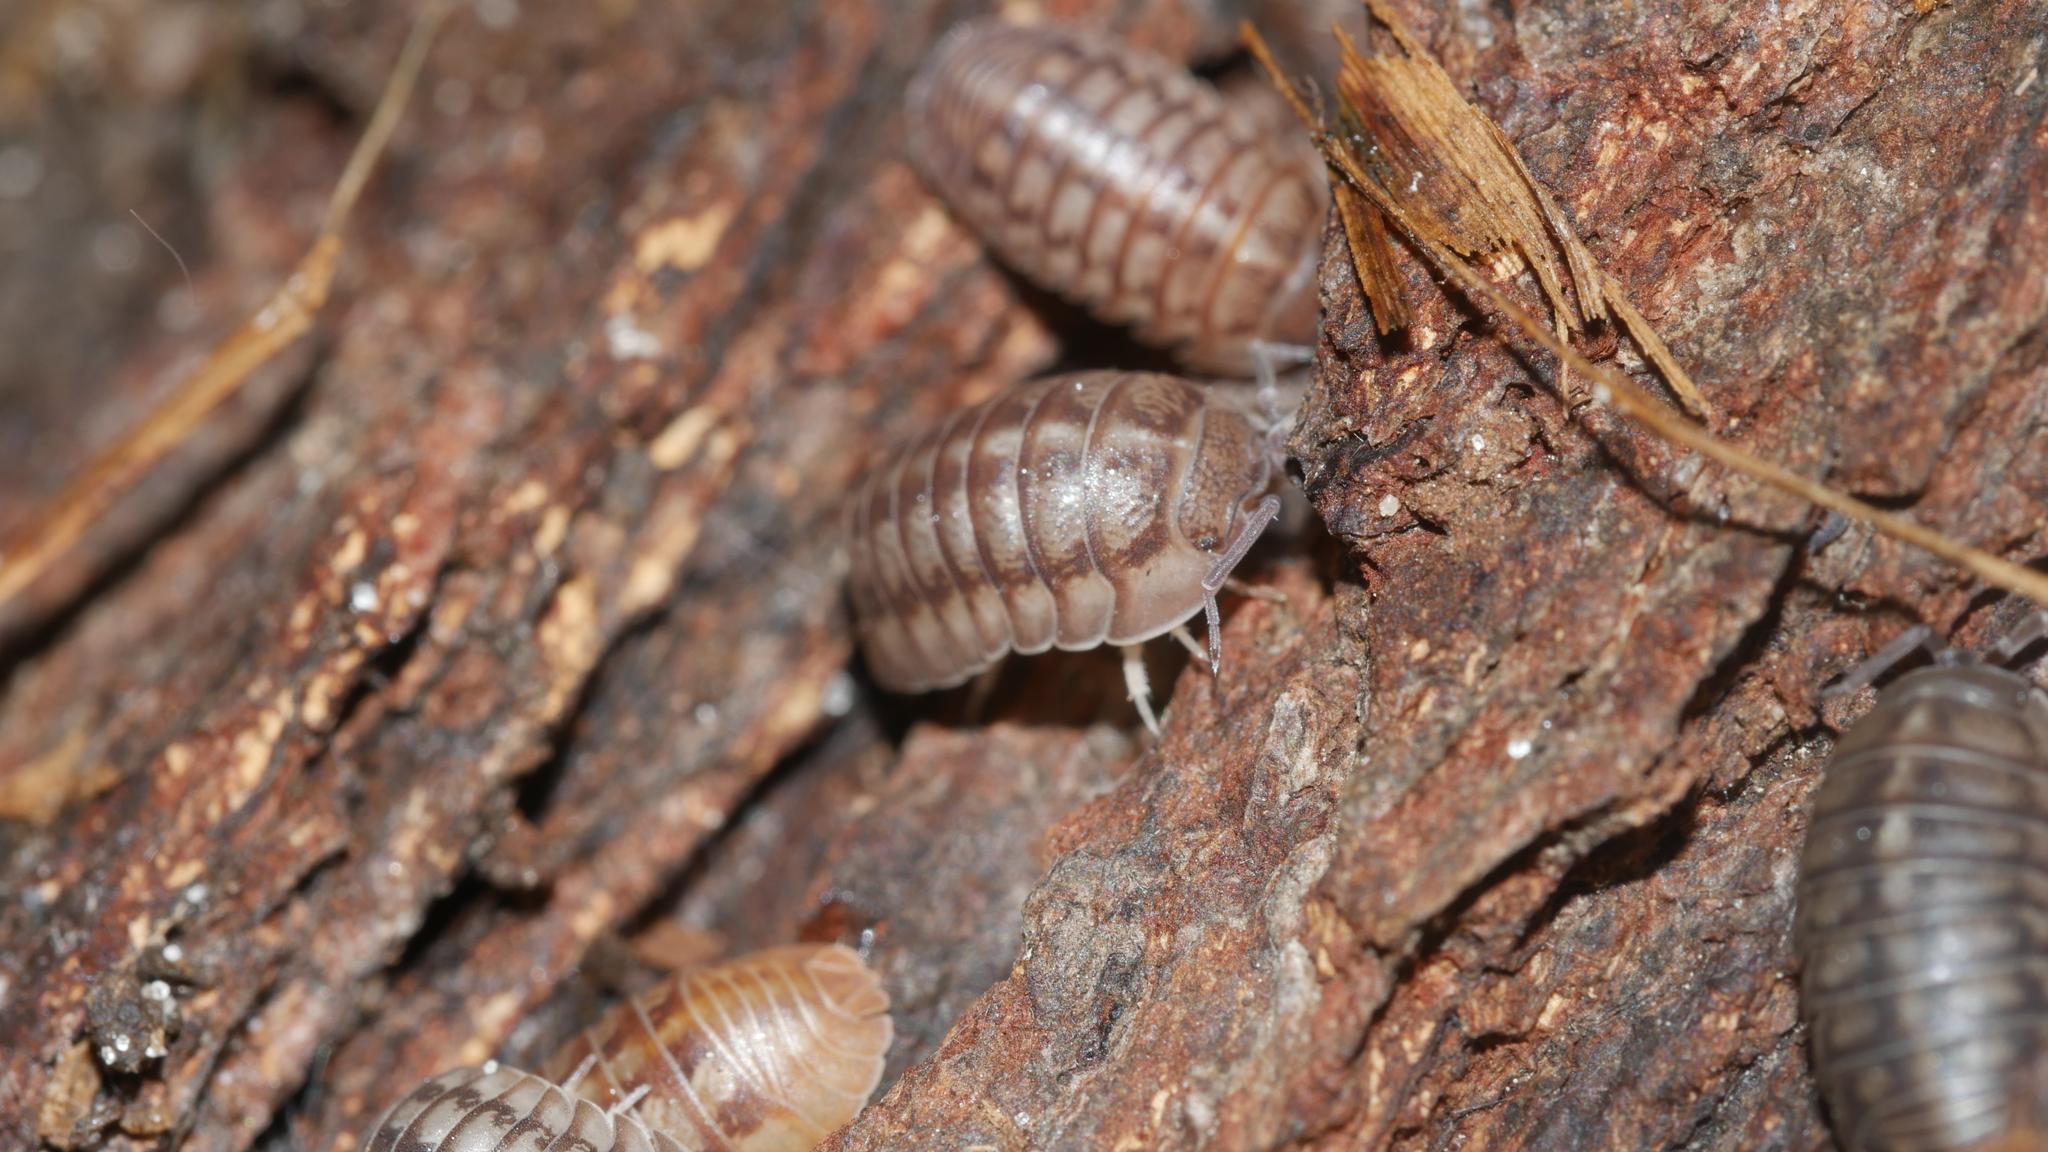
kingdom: Animalia
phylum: Arthropoda
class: Malacostraca
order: Isopoda
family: Armadillidiidae
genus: Armadillidium
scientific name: Armadillidium nasatum
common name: Isopod
